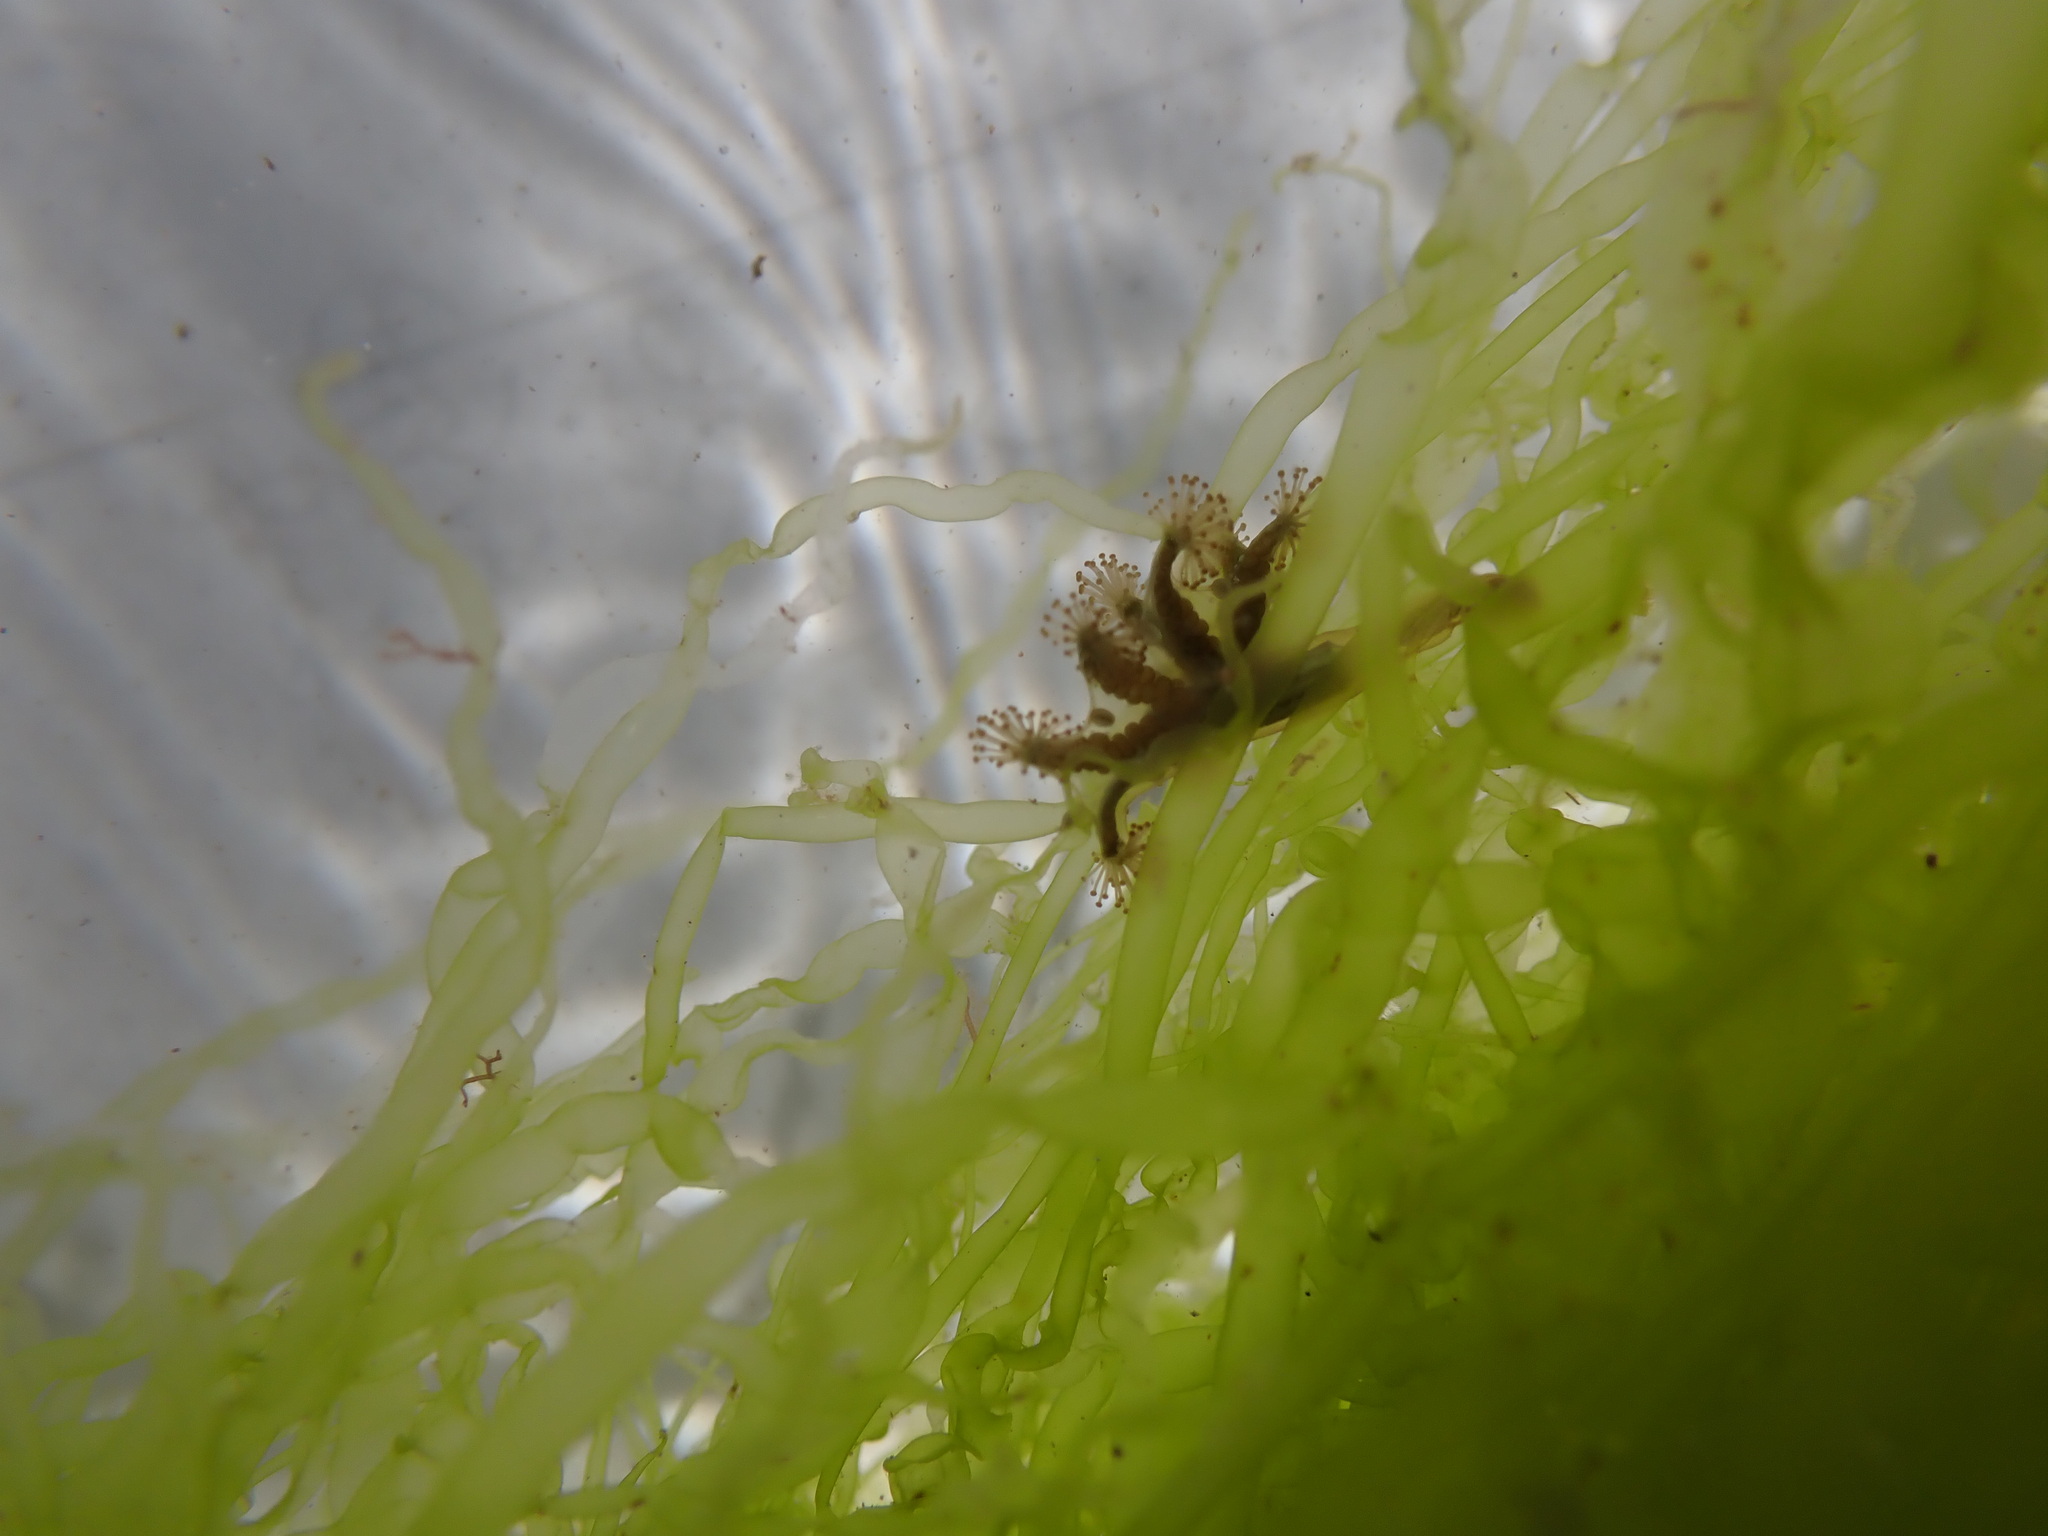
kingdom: Animalia
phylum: Cnidaria
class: Staurozoa
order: Stauromedusae
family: Haliclystidae
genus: Haliclystus
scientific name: Haliclystus octoradiatus
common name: Octaradiate stalked jellyfish
